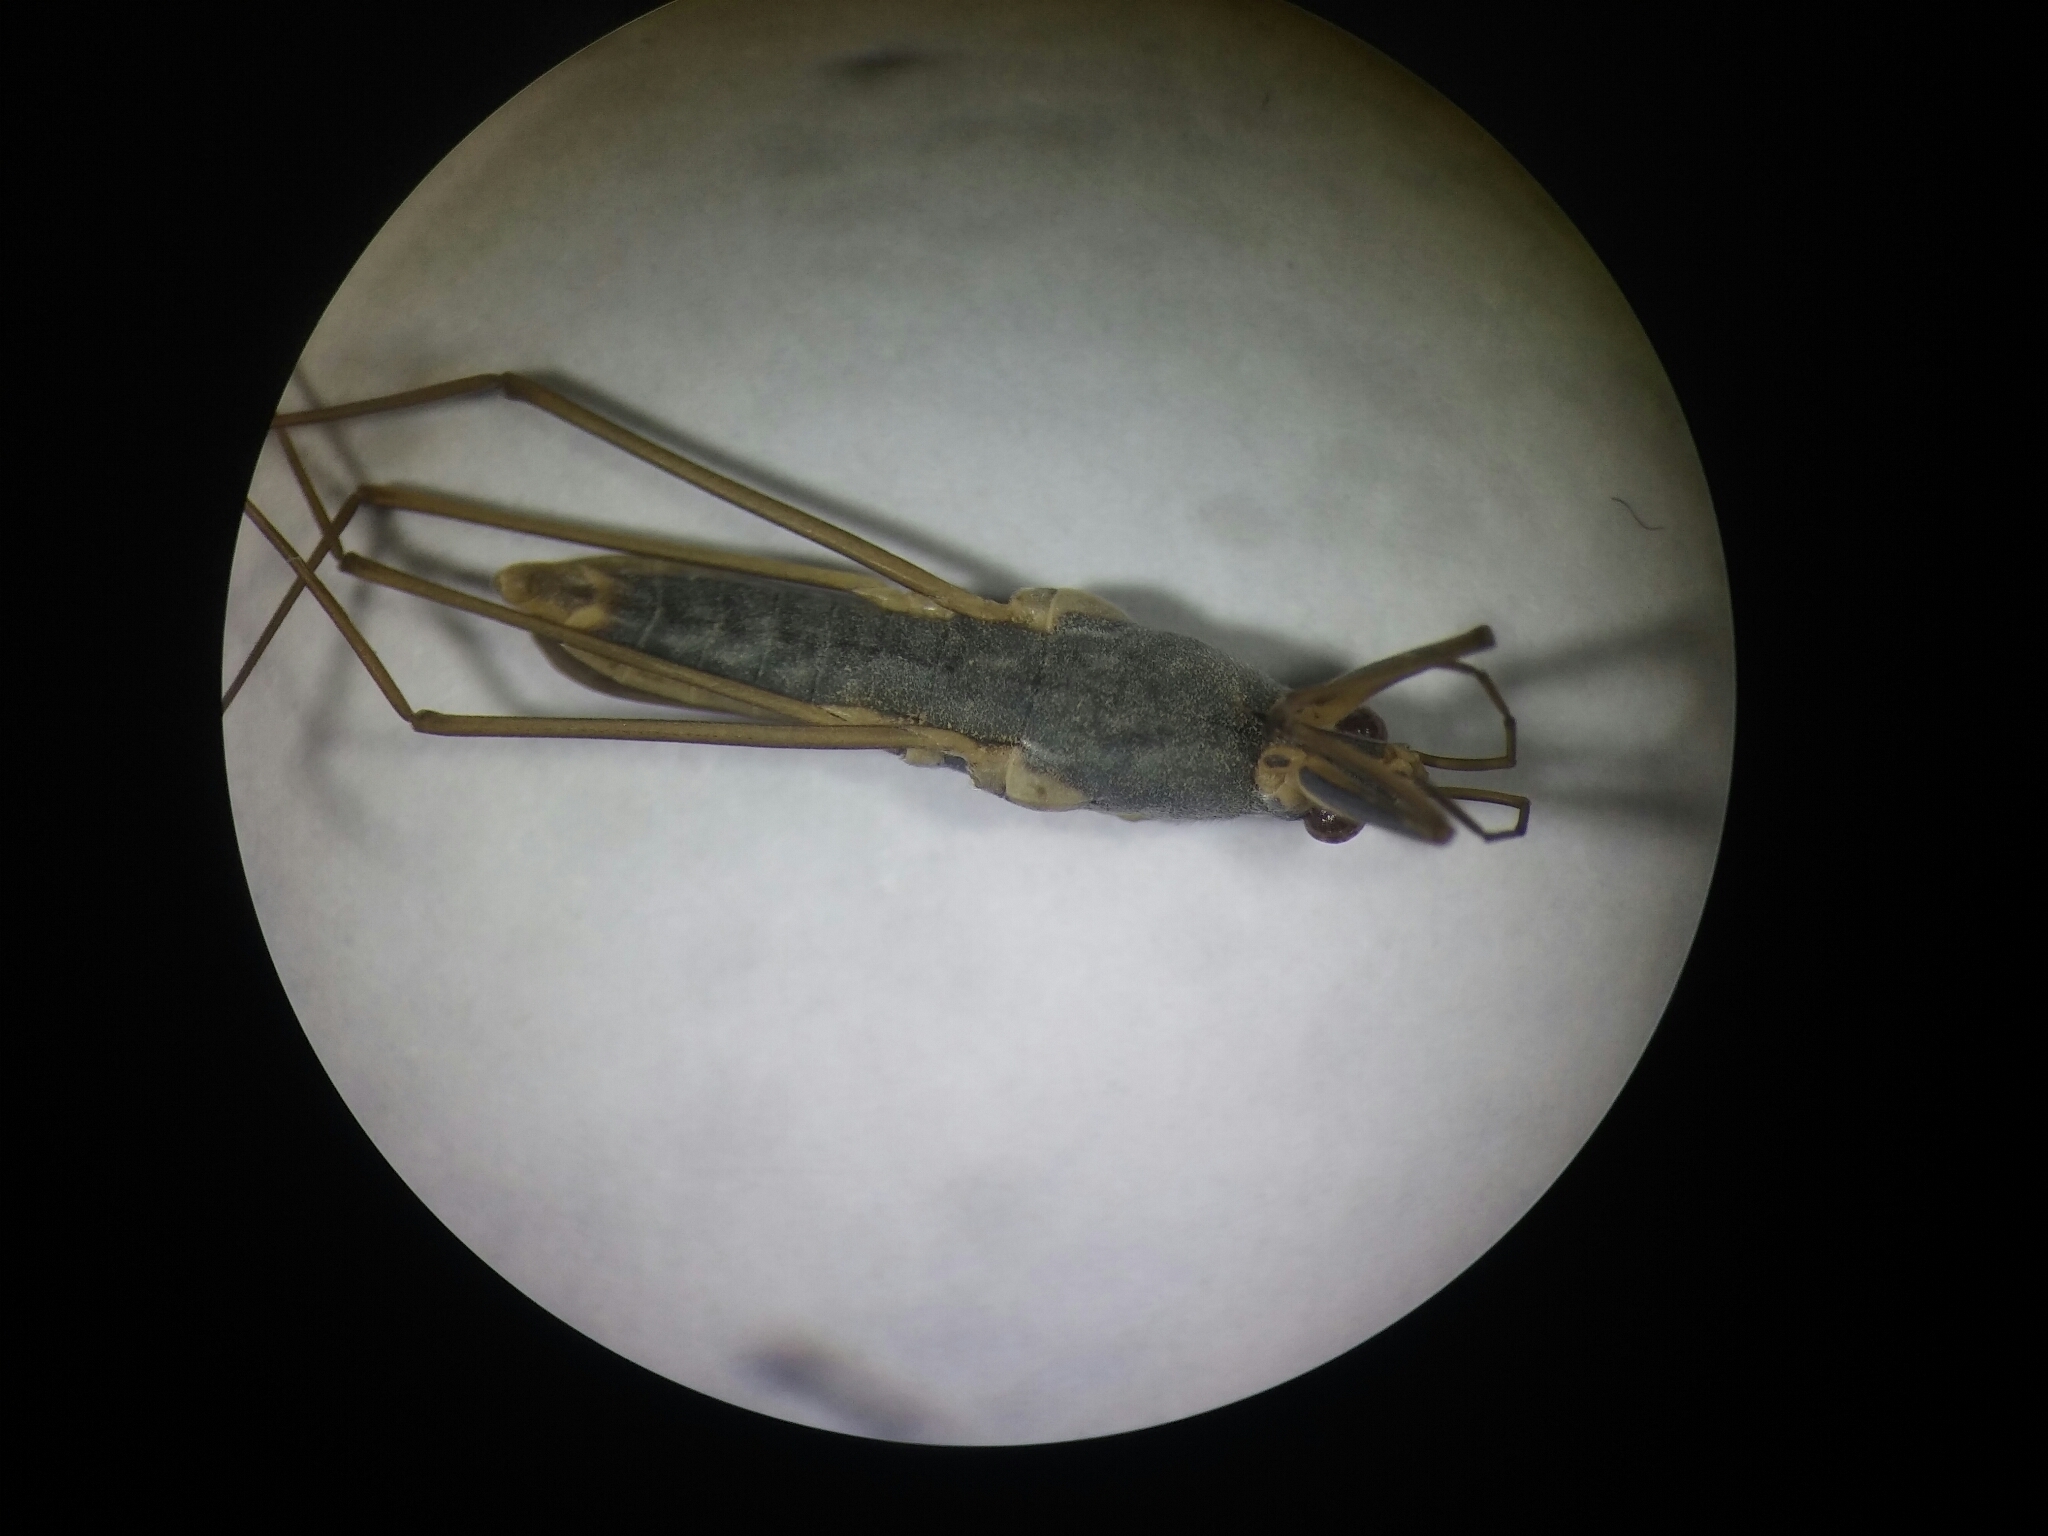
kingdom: Animalia
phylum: Arthropoda
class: Insecta
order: Hemiptera
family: Gerridae
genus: Gerris
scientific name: Gerris thoracicus
